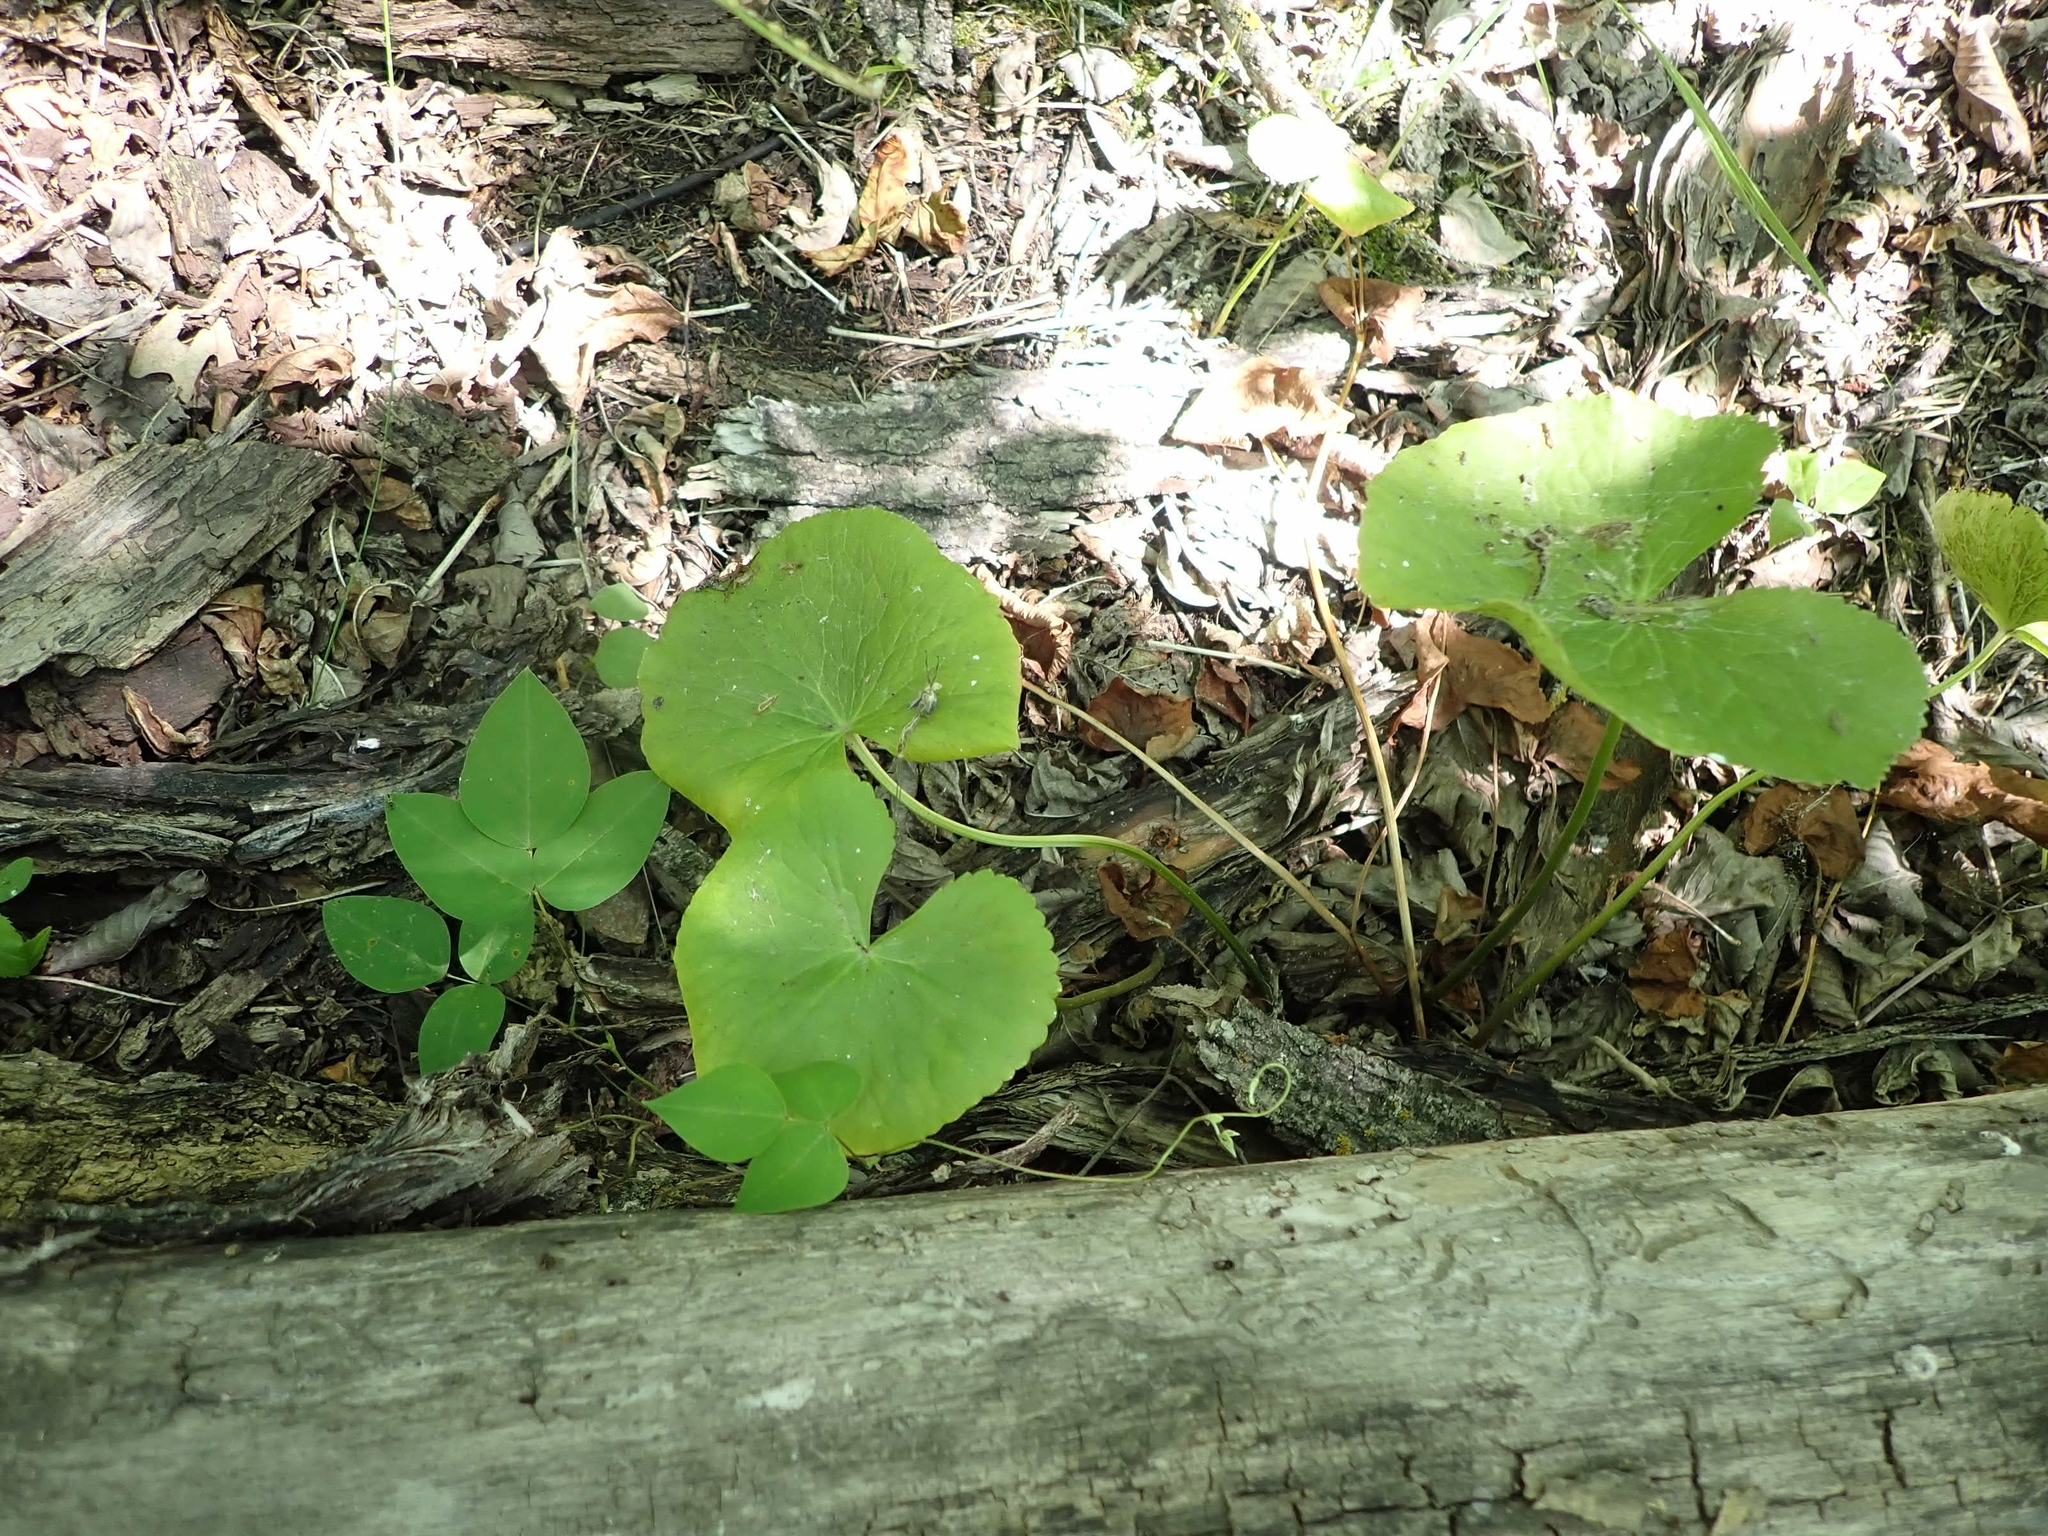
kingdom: Plantae
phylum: Tracheophyta
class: Magnoliopsida
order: Ranunculales
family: Ranunculaceae
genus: Caltha
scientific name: Caltha palustris
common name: Marsh marigold
